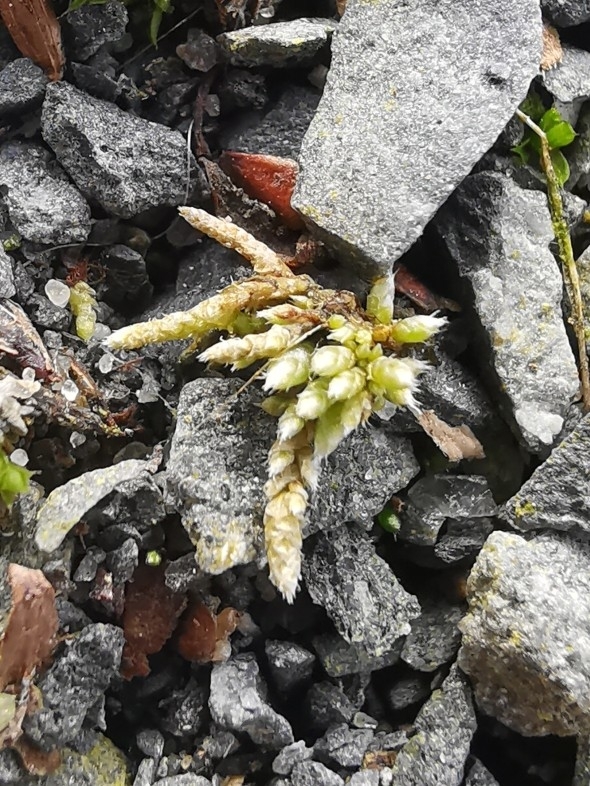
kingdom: Plantae
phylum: Bryophyta
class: Bryopsida
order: Bryales
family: Bryaceae
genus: Bryum
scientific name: Bryum argenteum
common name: Silver-moss
